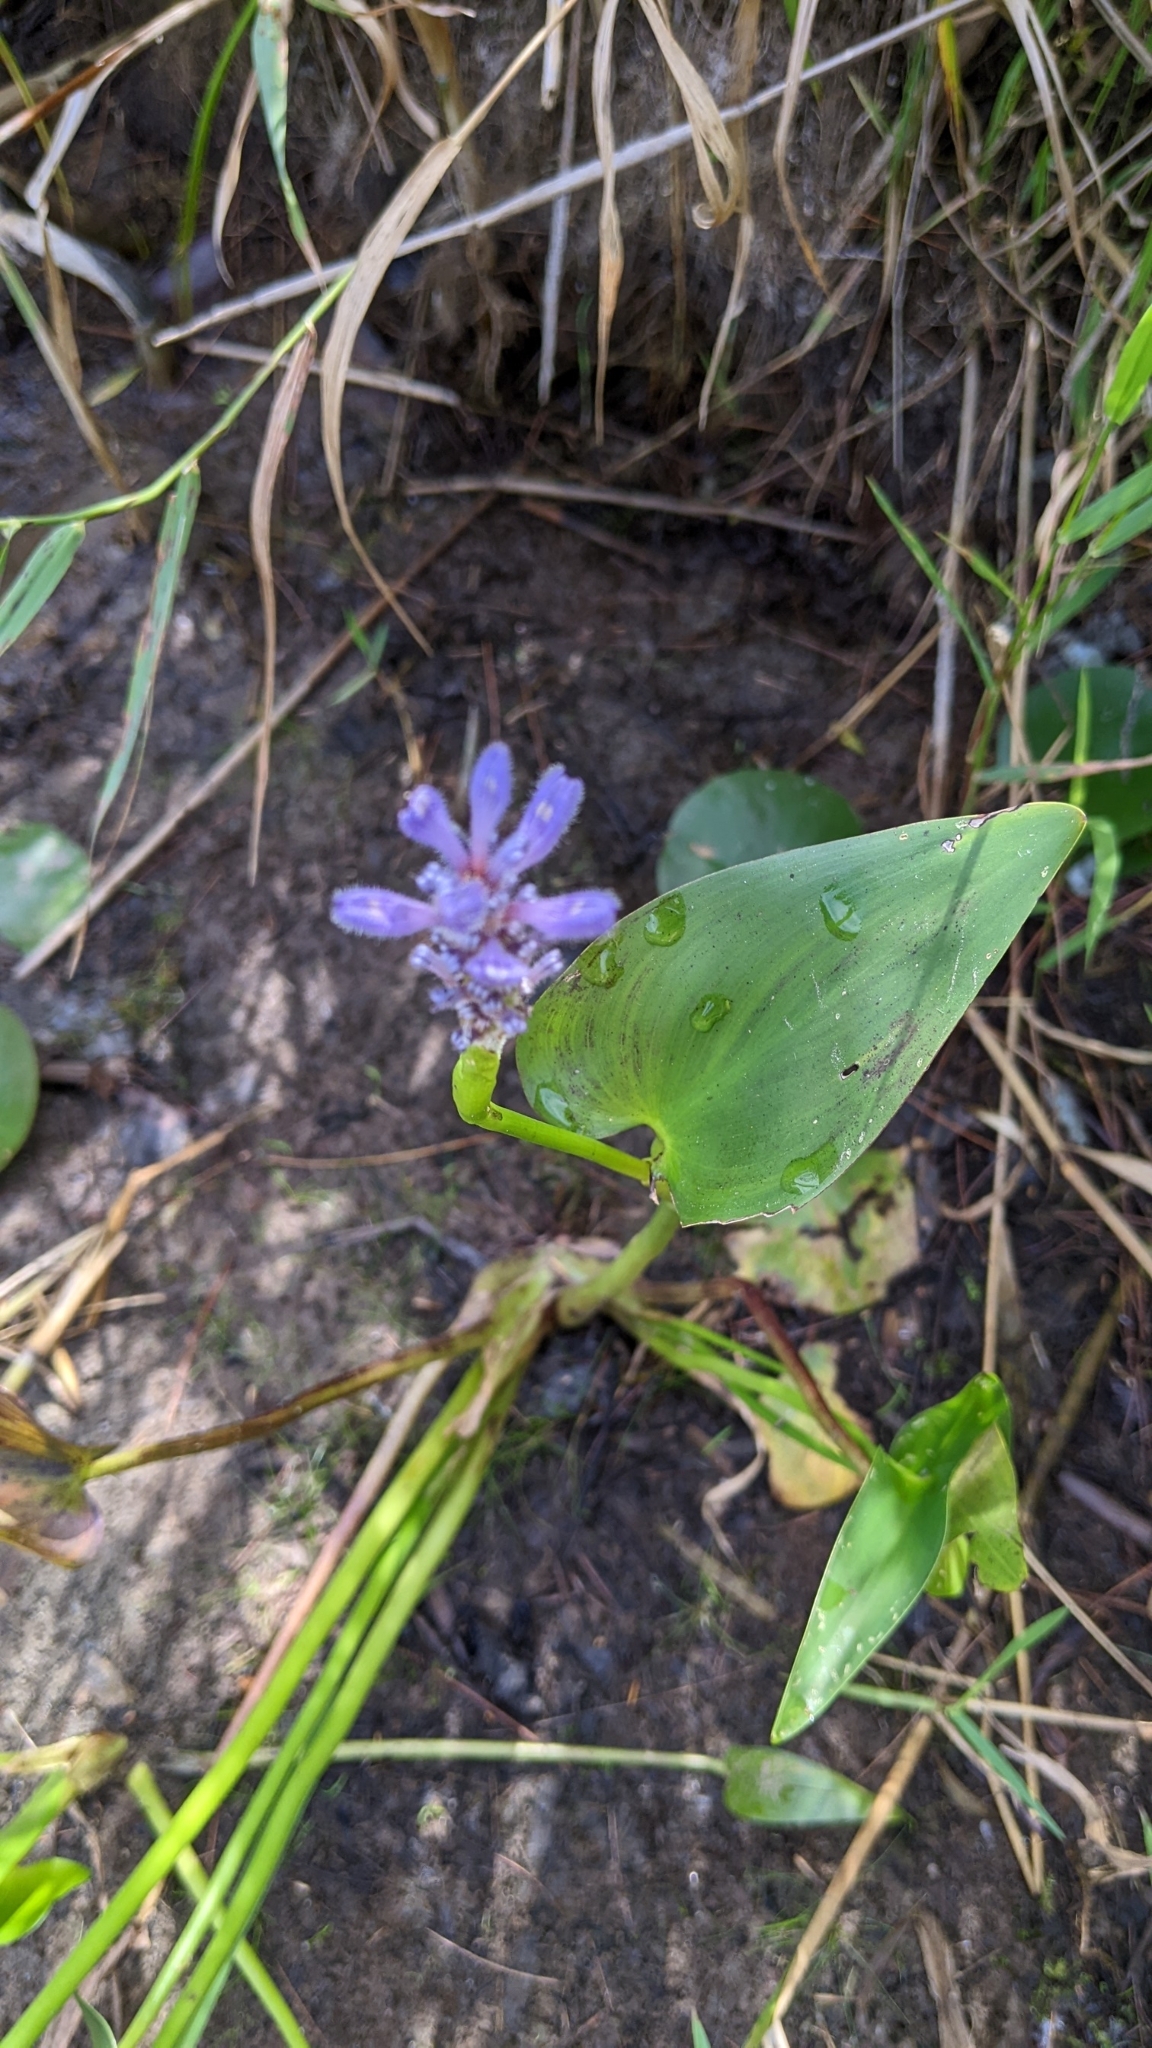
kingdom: Plantae
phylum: Tracheophyta
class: Liliopsida
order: Commelinales
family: Pontederiaceae
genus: Pontederia
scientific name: Pontederia cordata
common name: Pickerelweed
